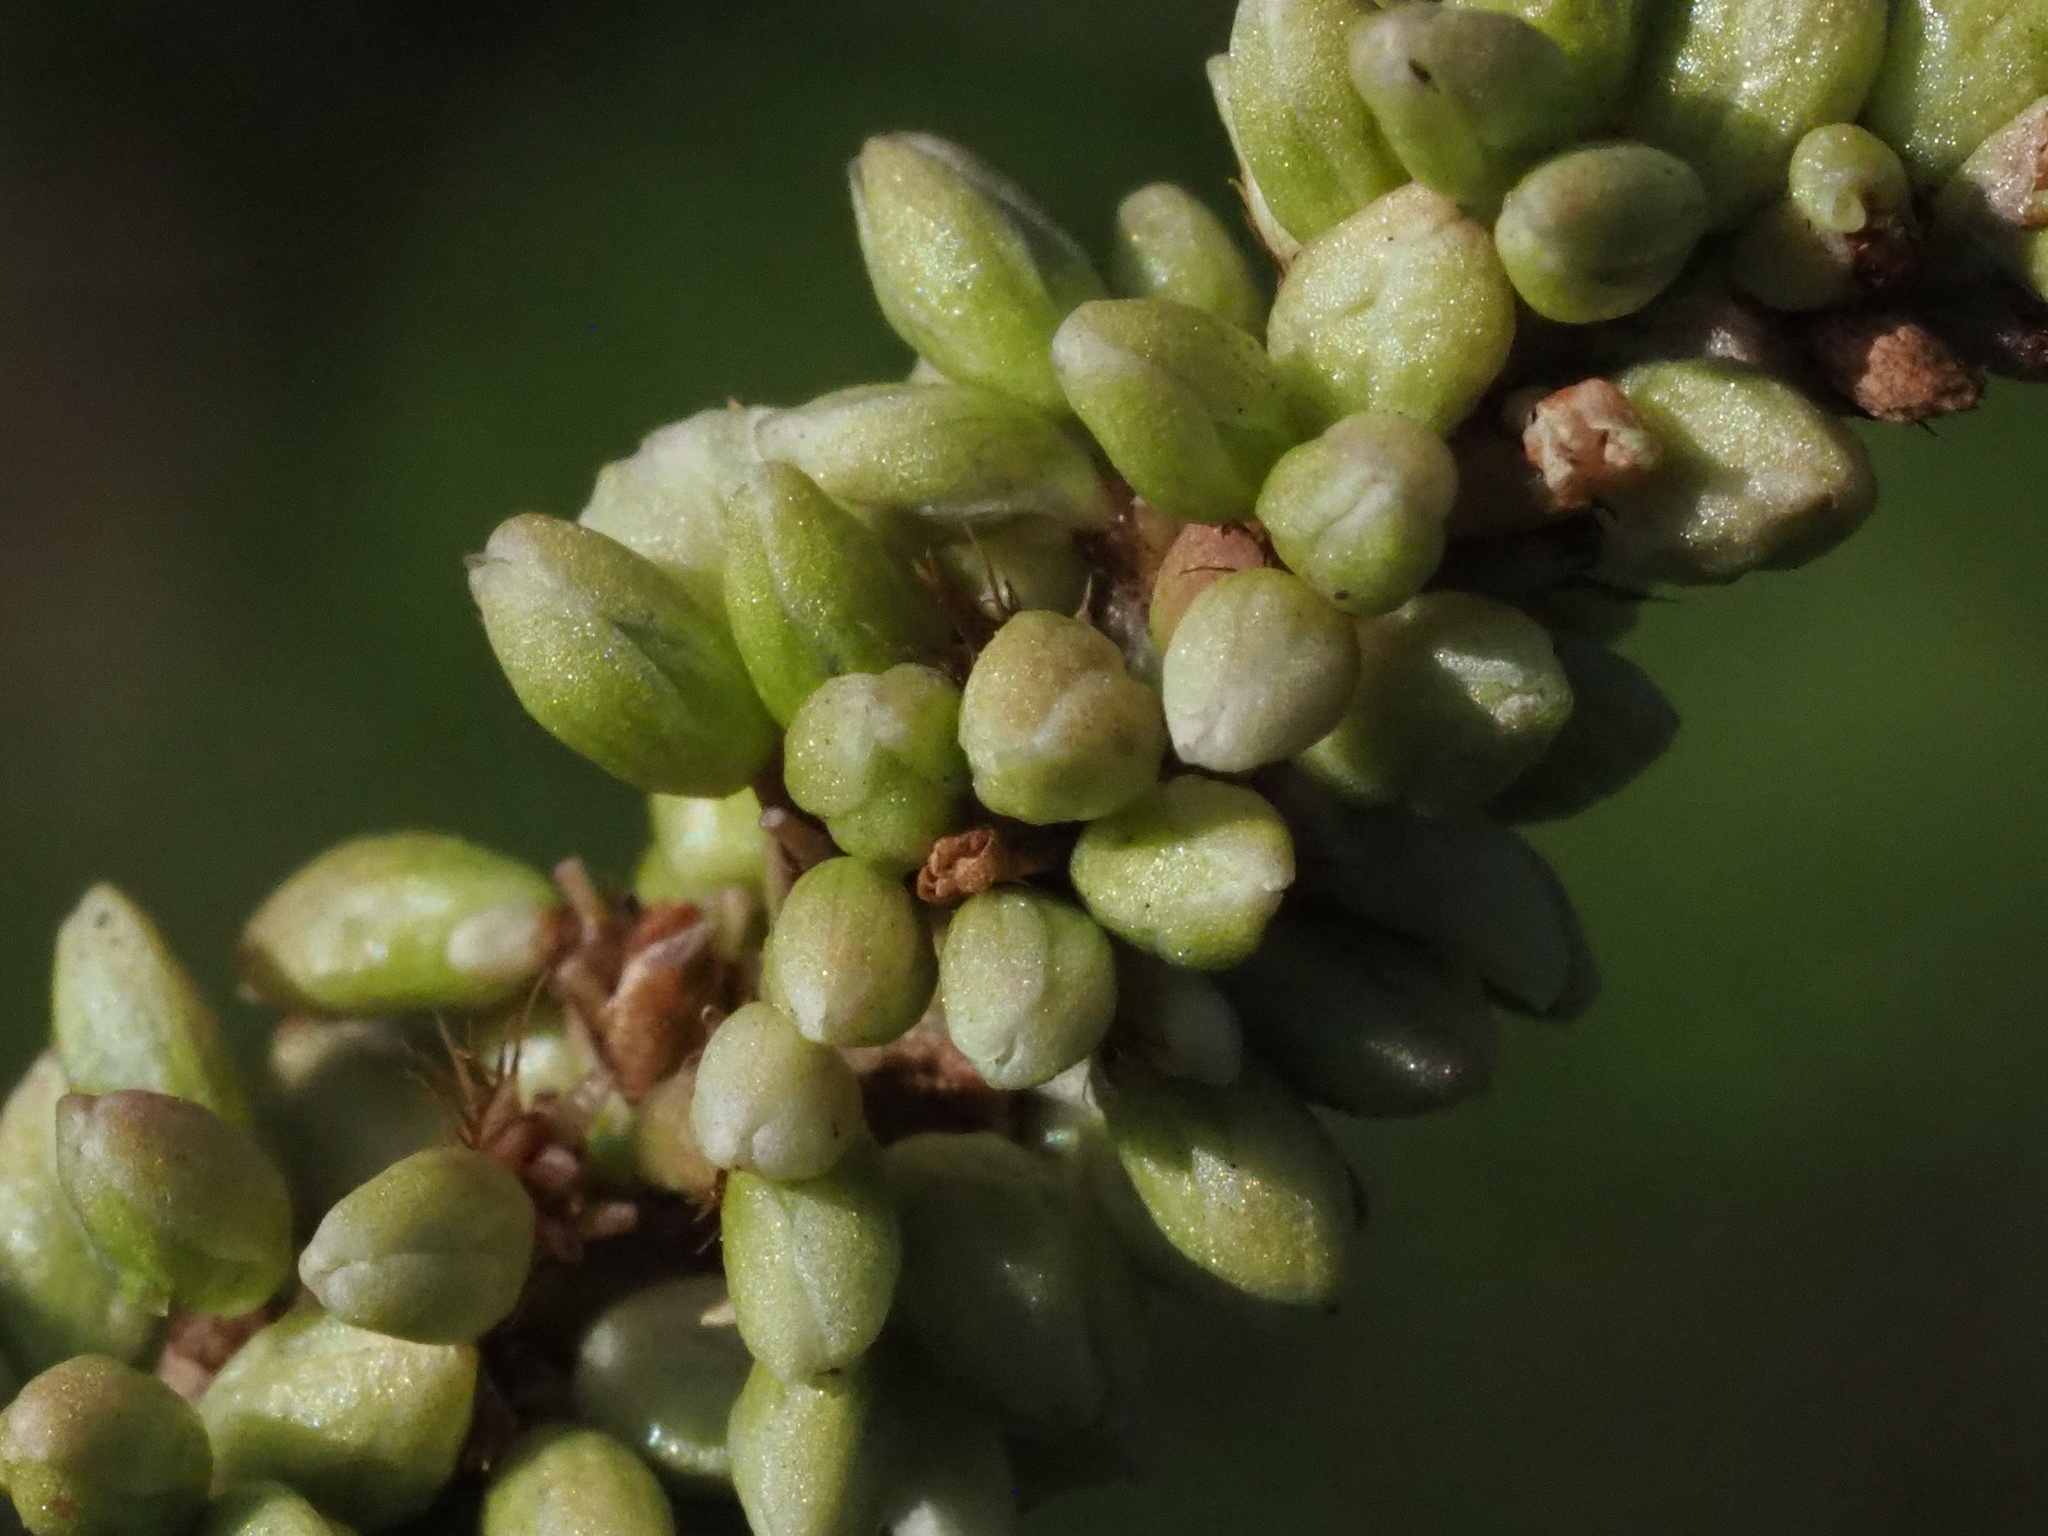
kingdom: Plantae
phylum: Tracheophyta
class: Magnoliopsida
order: Caryophyllales
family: Polygonaceae
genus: Persicaria
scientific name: Persicaria barbata
